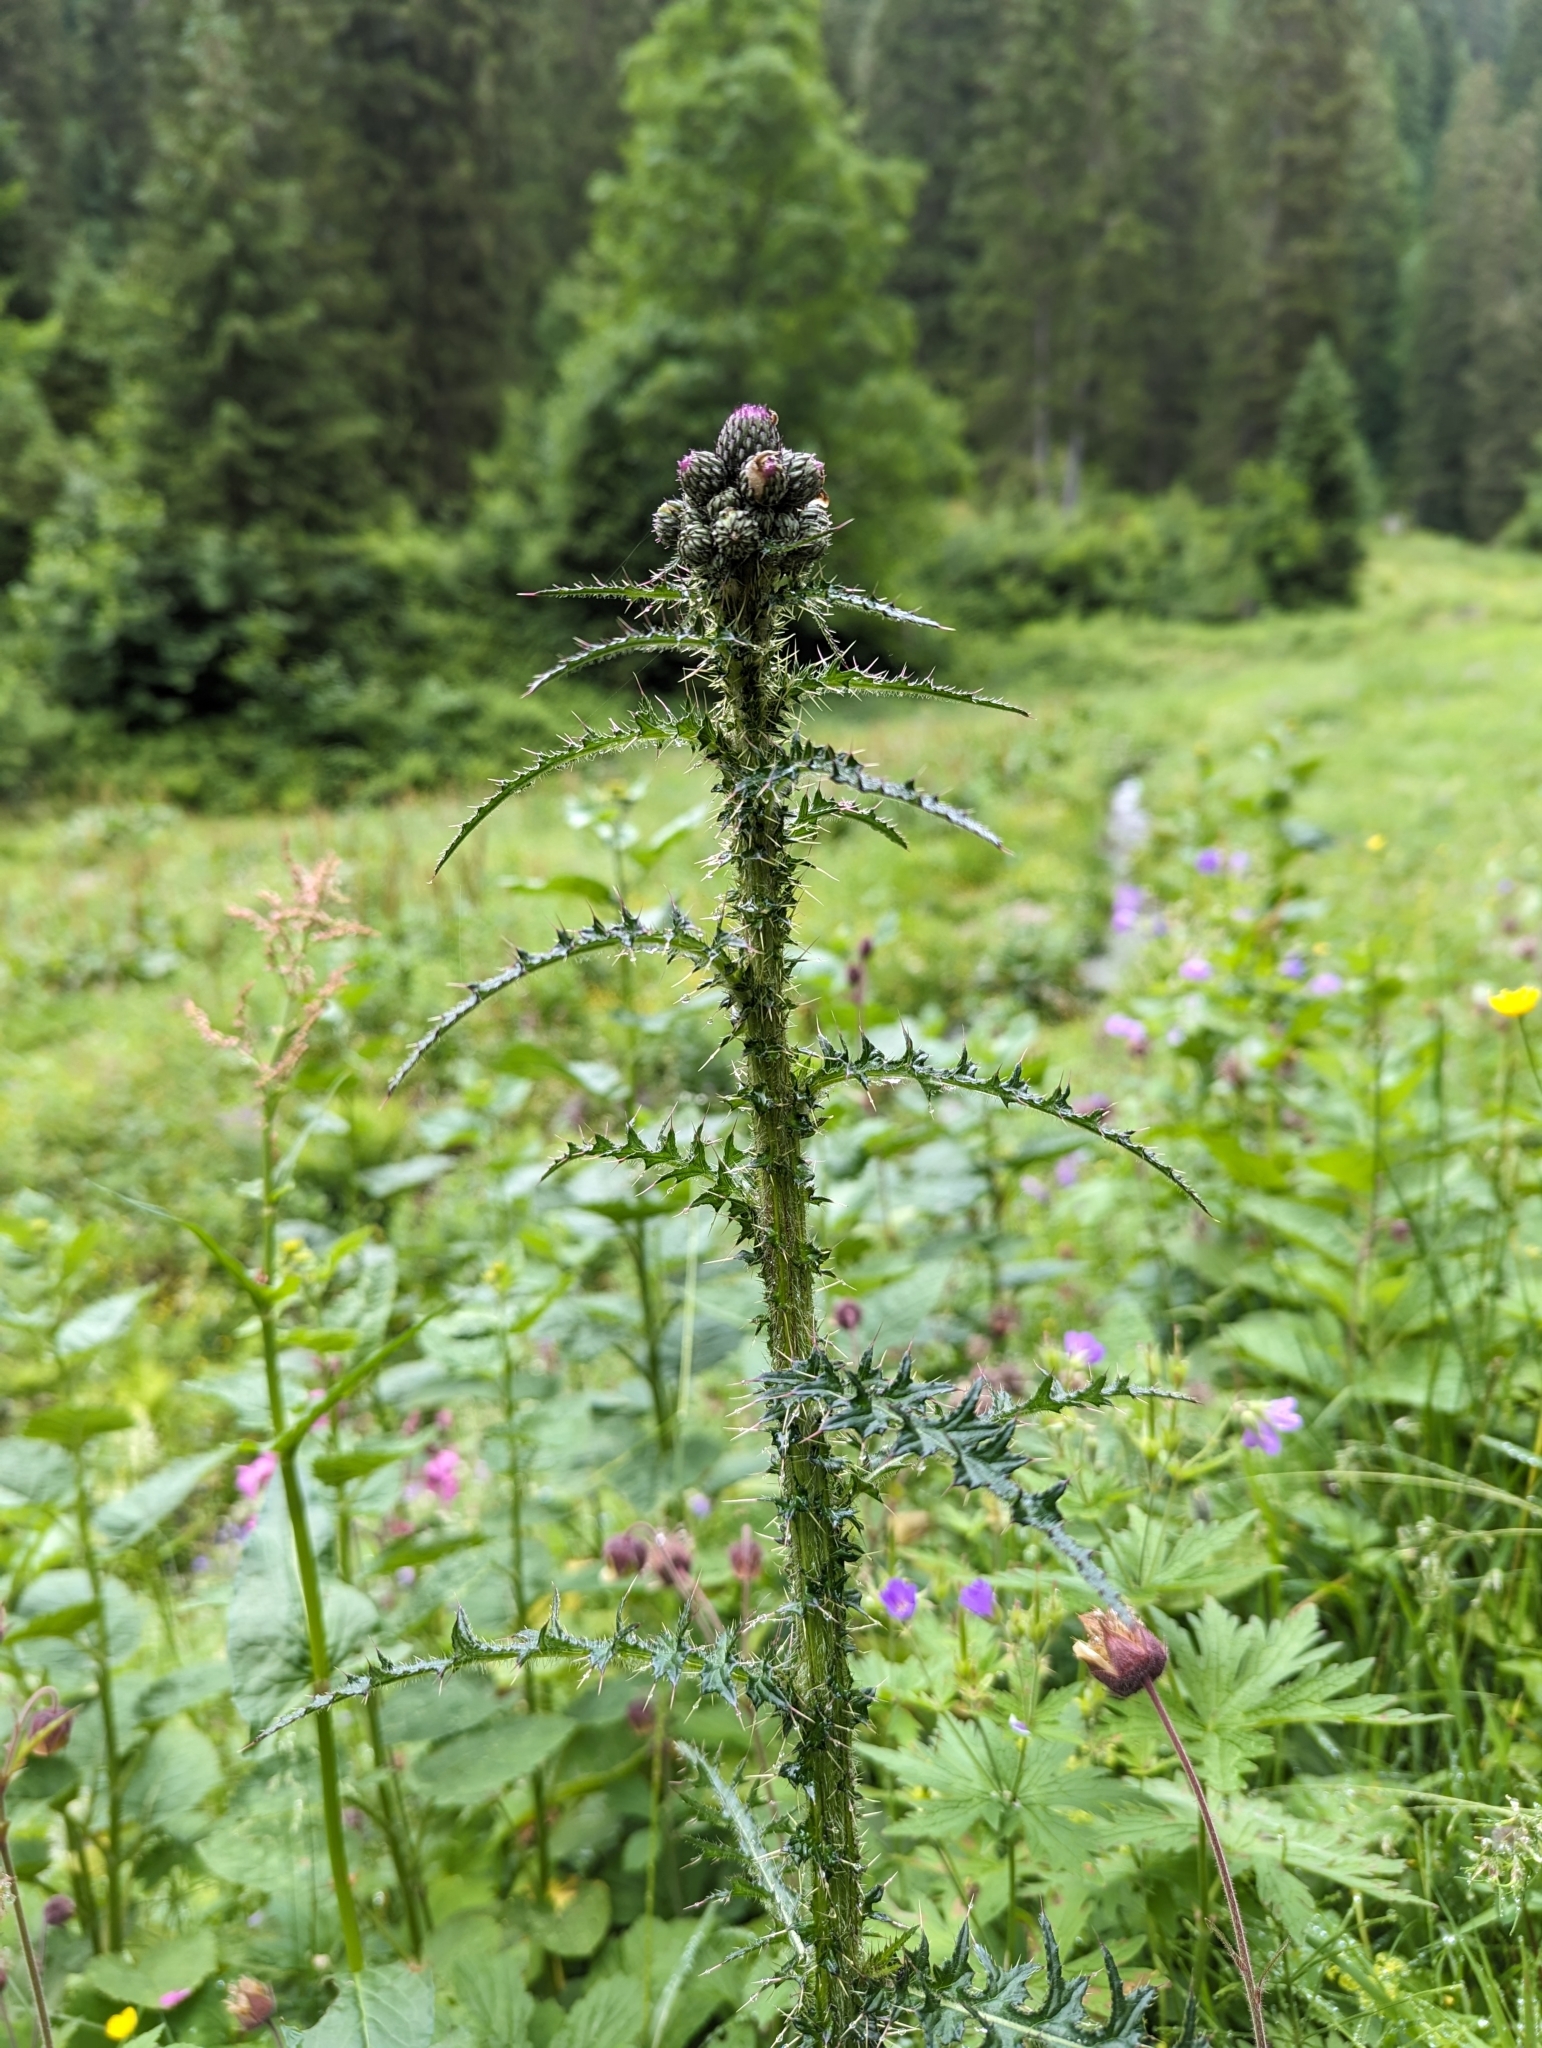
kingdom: Plantae
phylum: Tracheophyta
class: Magnoliopsida
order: Asterales
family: Asteraceae
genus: Cirsium
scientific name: Cirsium palustre
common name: Marsh thistle
